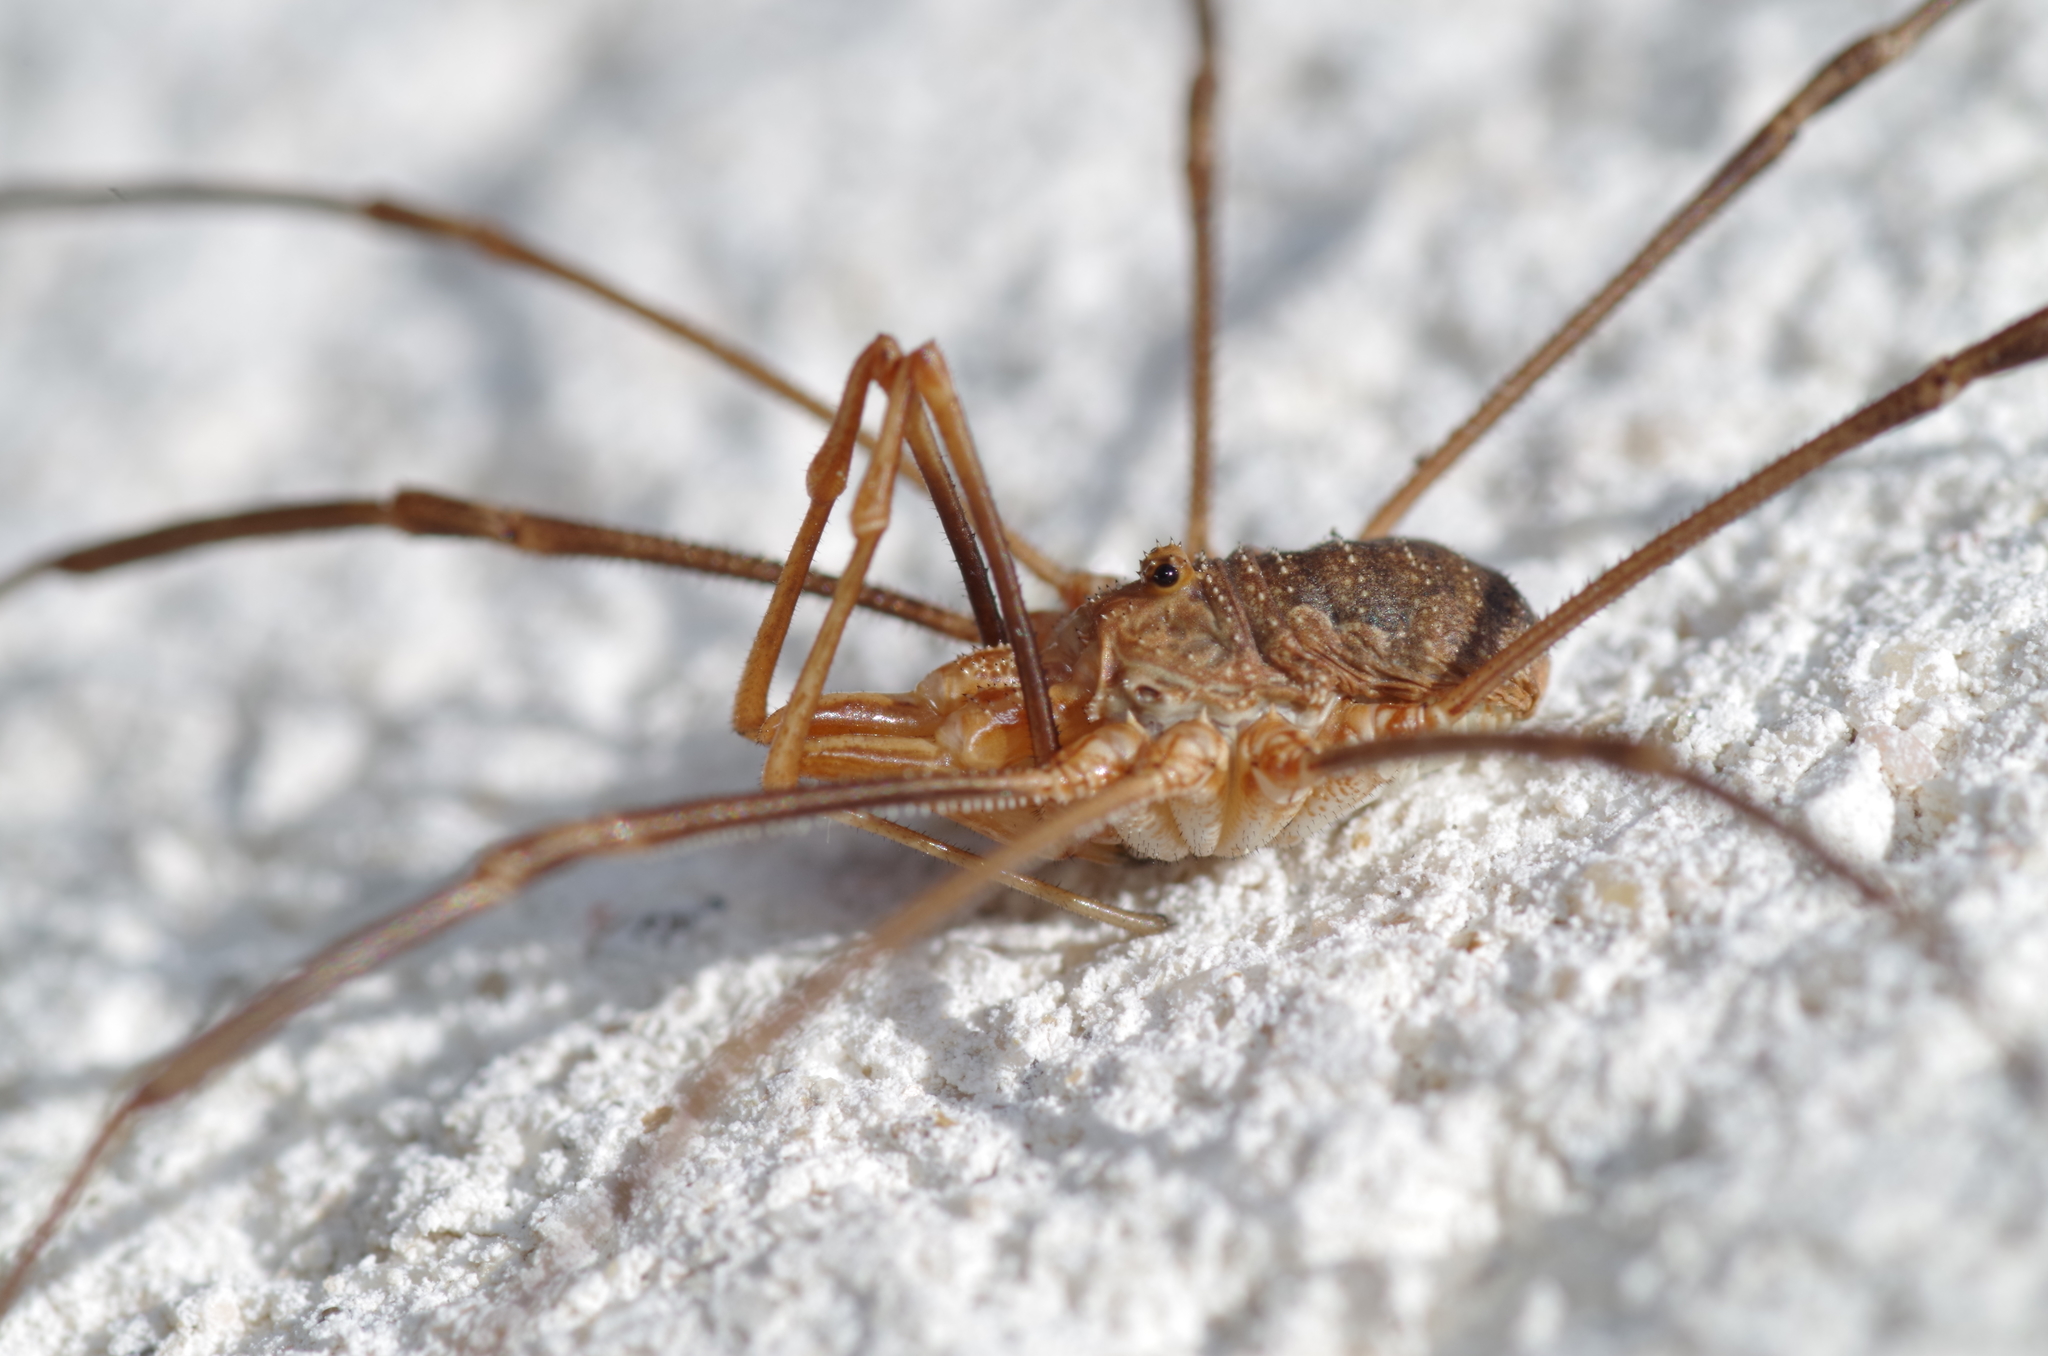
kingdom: Animalia
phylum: Arthropoda
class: Arachnida
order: Opiliones
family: Phalangiidae
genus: Phalangium
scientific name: Phalangium opilio
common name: Daddy longleg
